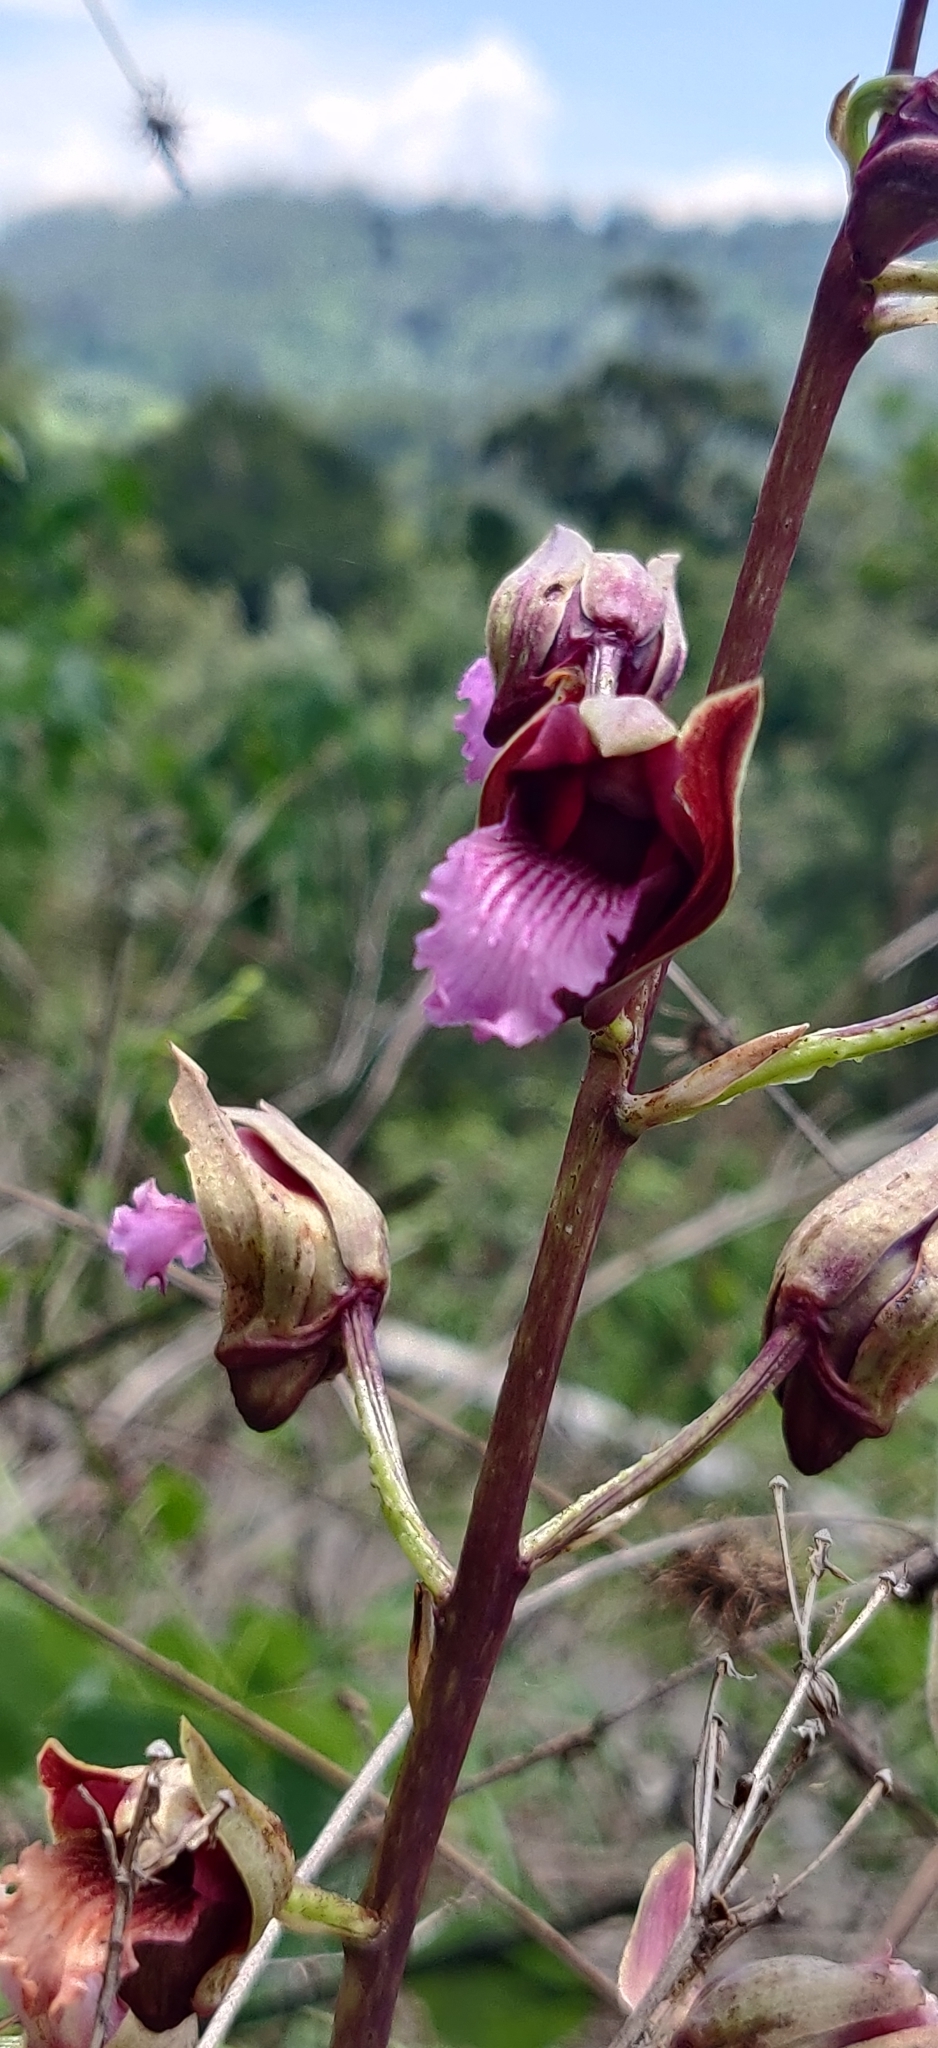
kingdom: Plantae
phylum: Tracheophyta
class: Liliopsida
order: Asparagales
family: Orchidaceae
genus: Eulophia
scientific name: Eulophia nuda
